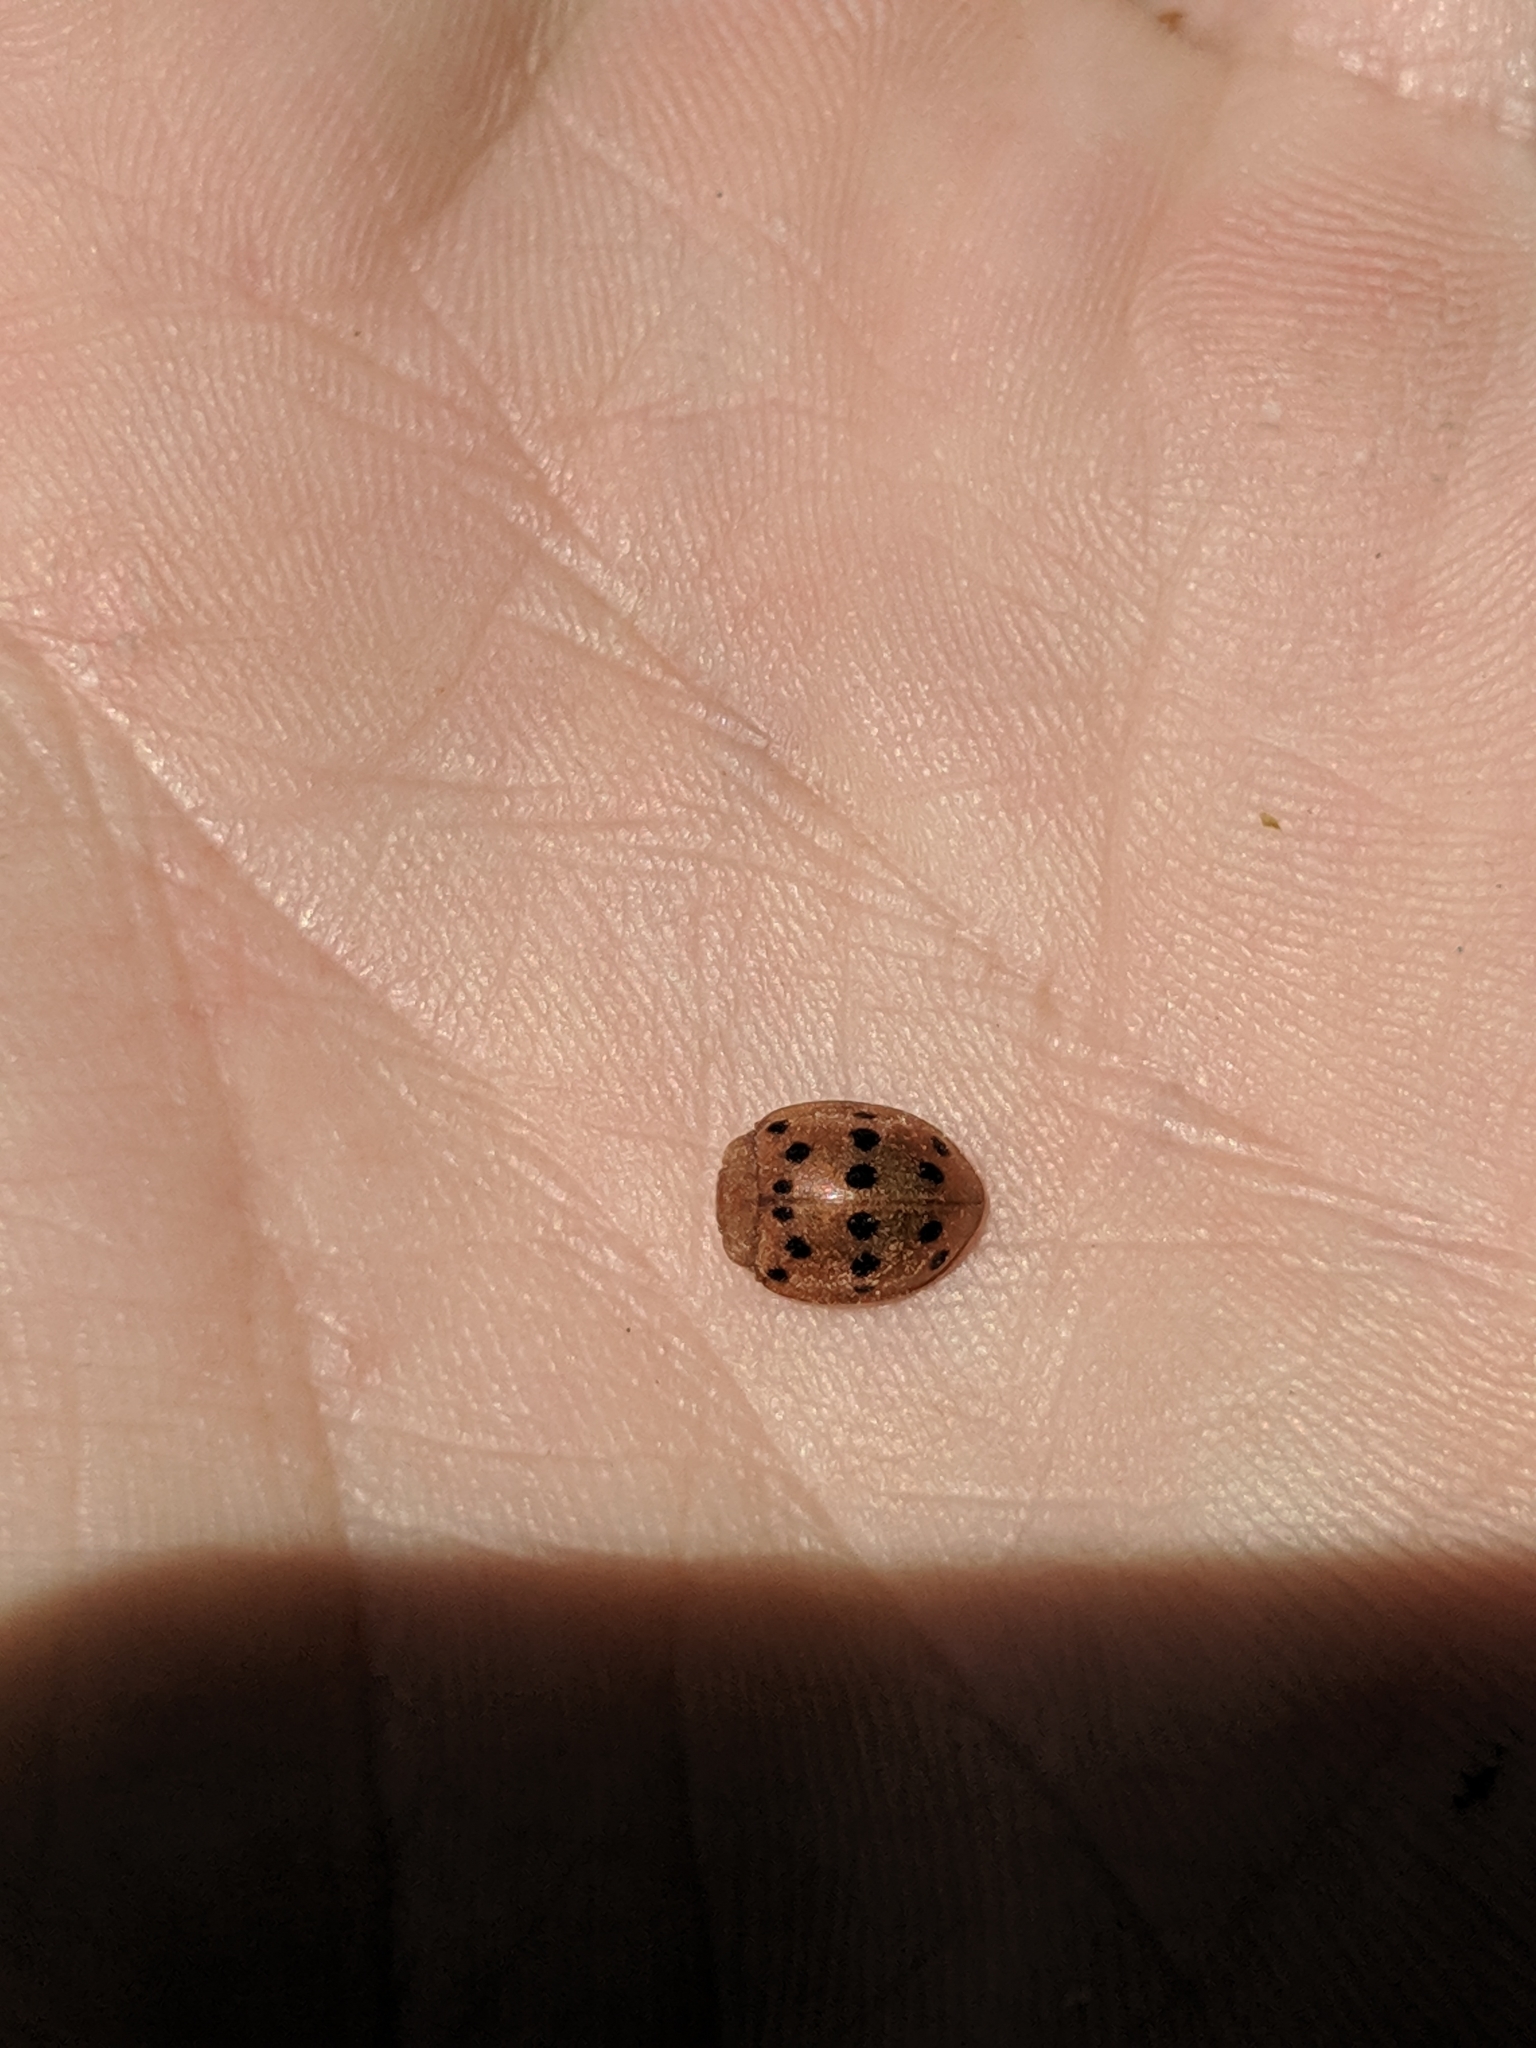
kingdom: Animalia
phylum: Arthropoda
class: Insecta
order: Coleoptera
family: Coccinellidae
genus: Epilachna
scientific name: Epilachna varivestis
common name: Ladybird beetle
